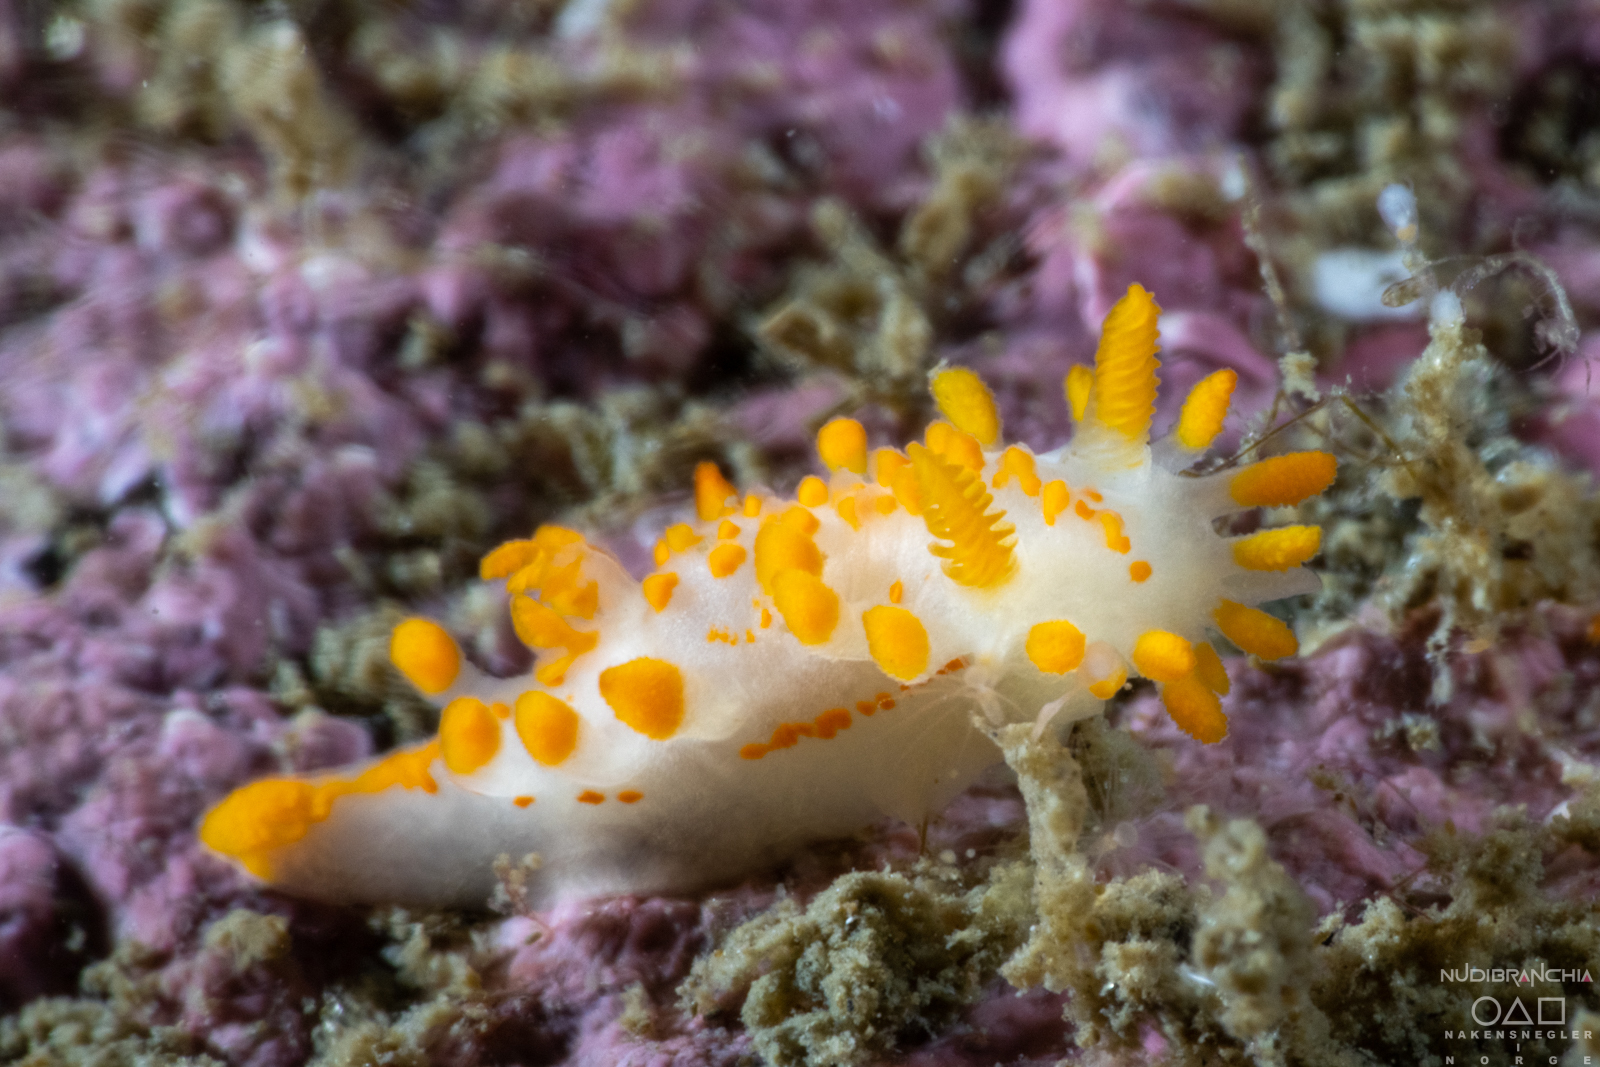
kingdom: Animalia
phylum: Mollusca
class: Gastropoda
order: Nudibranchia
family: Polyceridae
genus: Limacia
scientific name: Limacia clavigera
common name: Orange-clubbed sea slug
